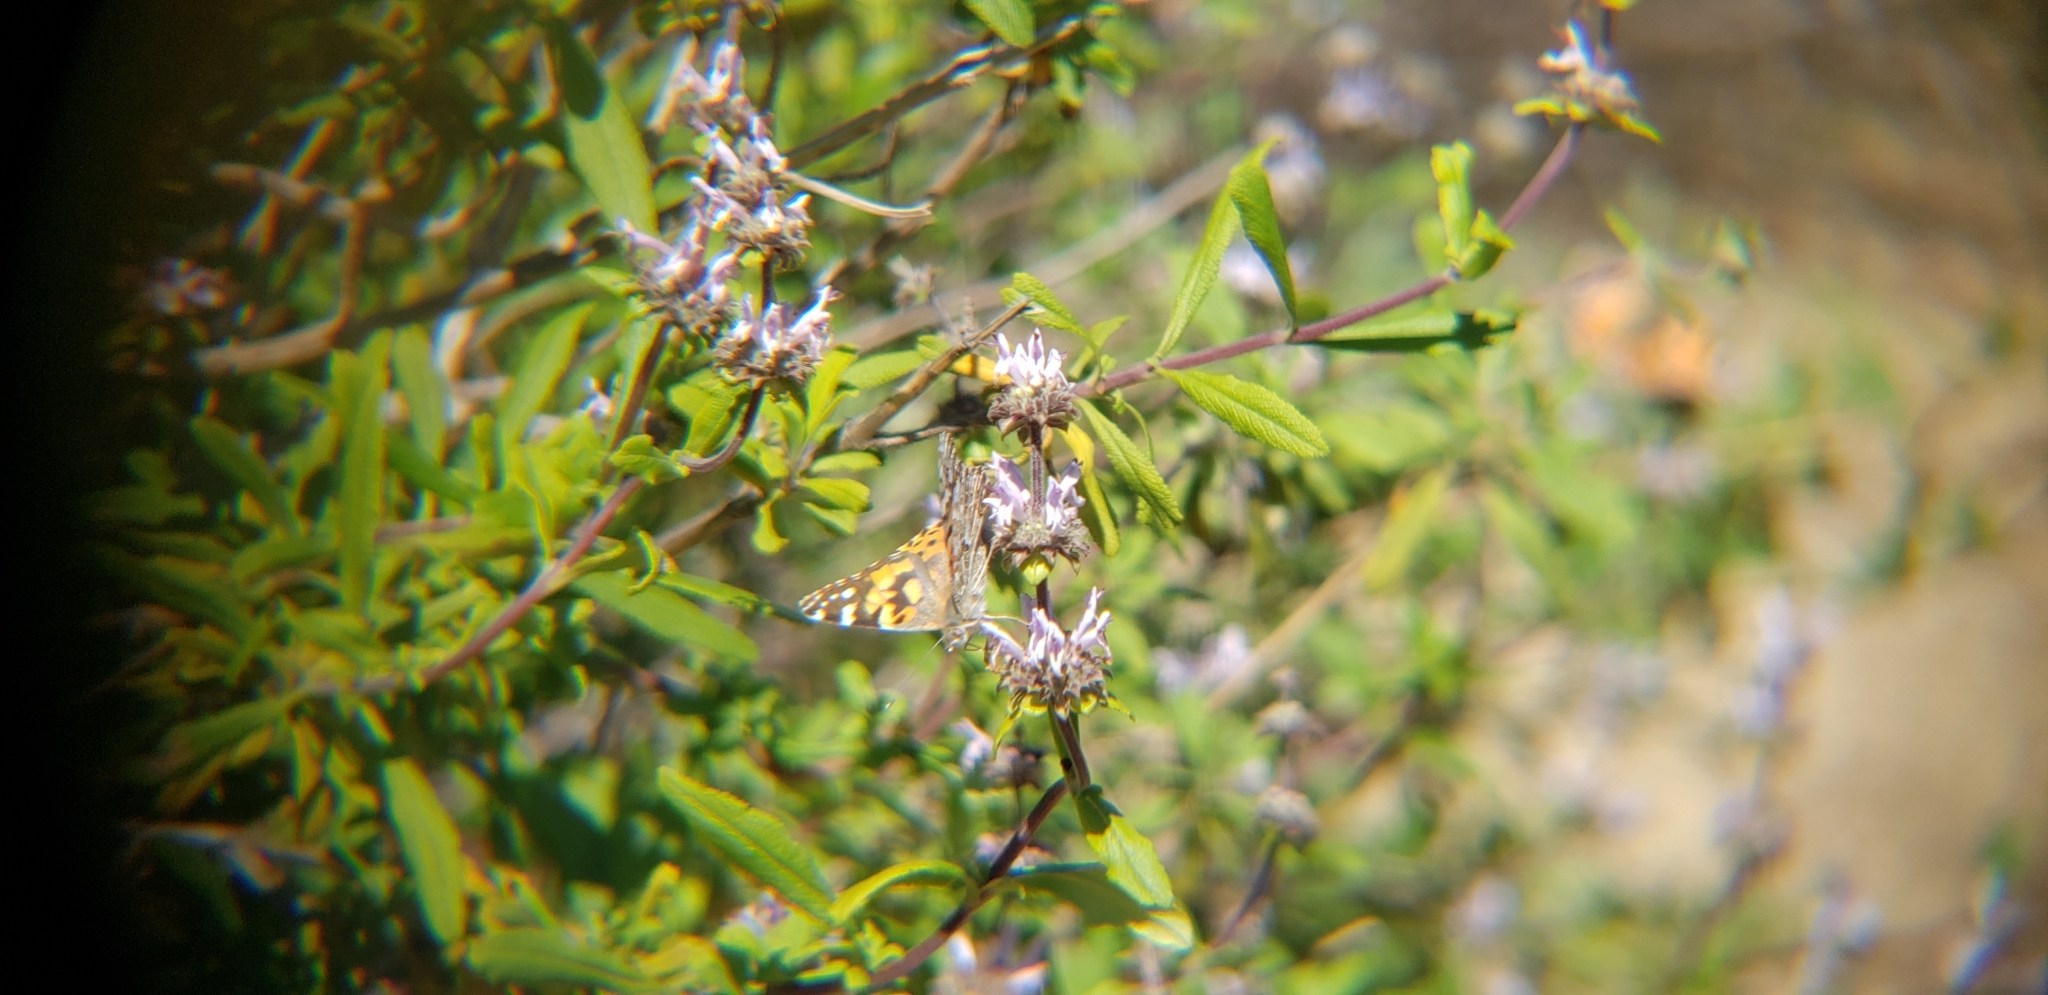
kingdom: Animalia
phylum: Arthropoda
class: Insecta
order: Lepidoptera
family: Nymphalidae
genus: Vanessa
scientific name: Vanessa cardui
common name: Painted lady
